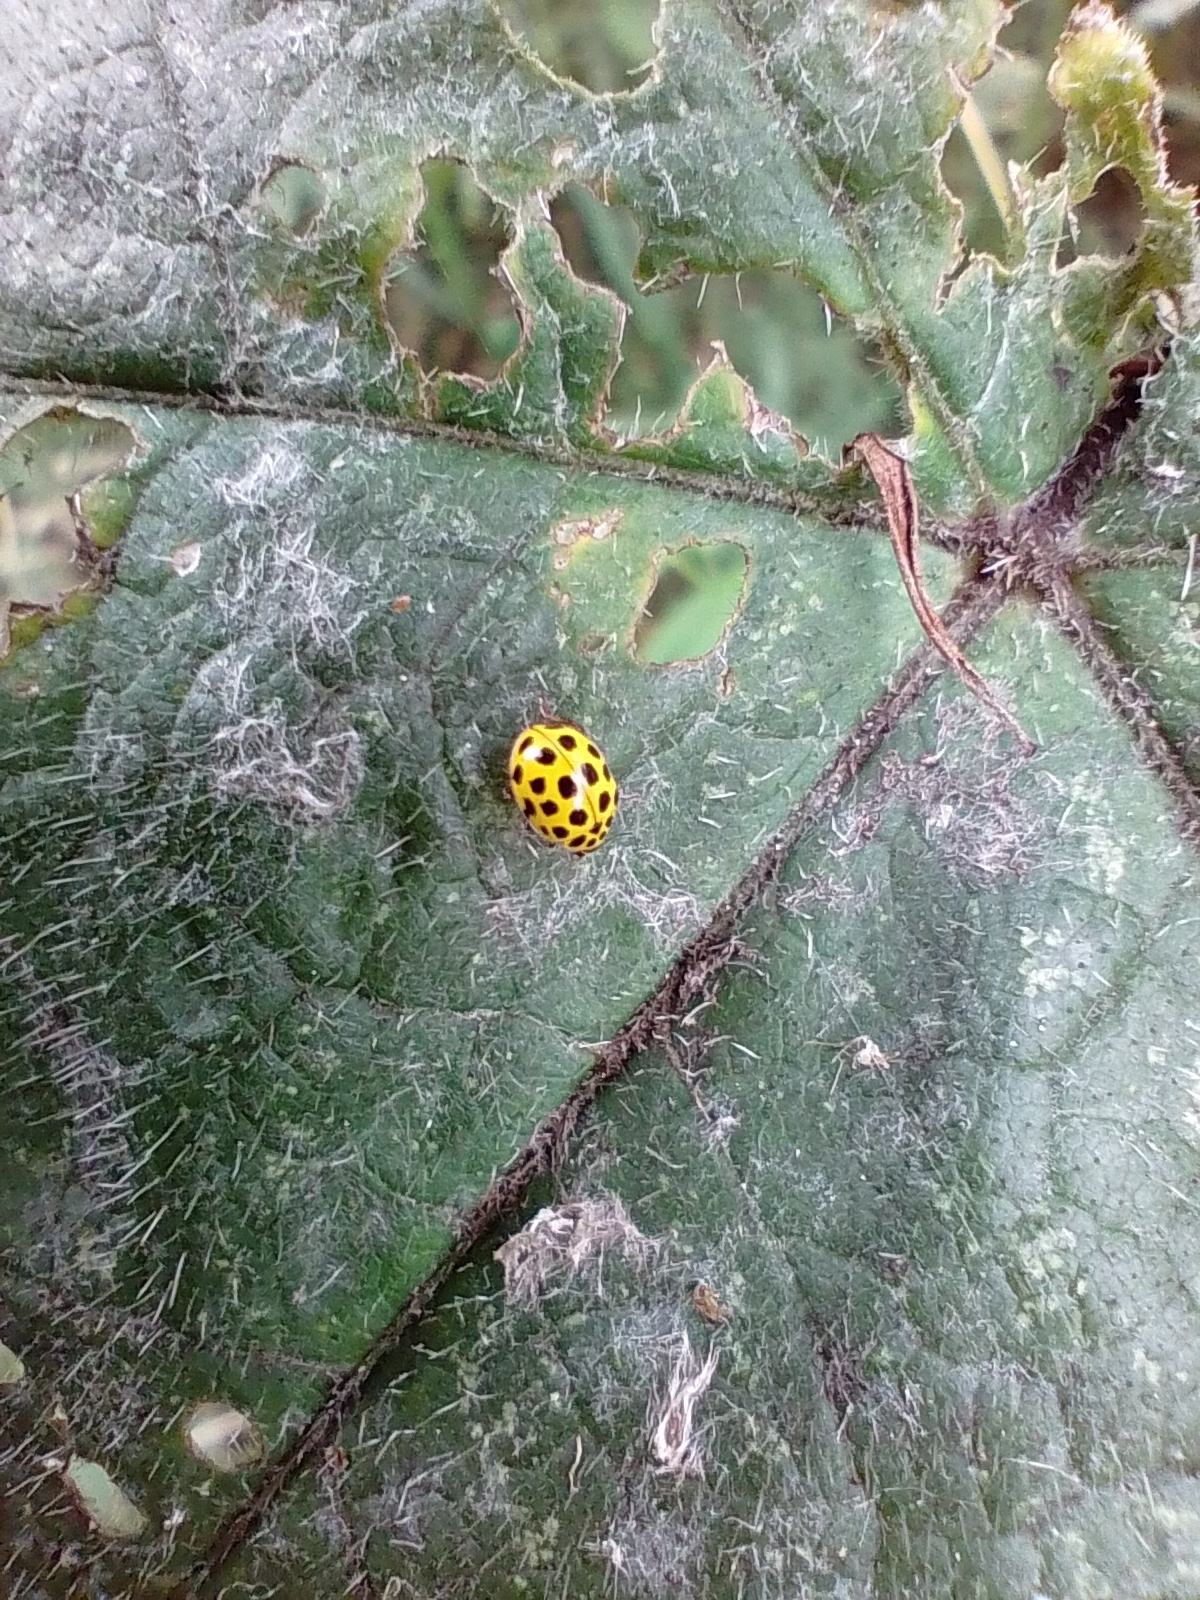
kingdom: Animalia
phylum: Arthropoda
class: Insecta
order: Coleoptera
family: Coccinellidae
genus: Psyllobora
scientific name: Psyllobora vigintiduopunctata
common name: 22-spot ladybird
